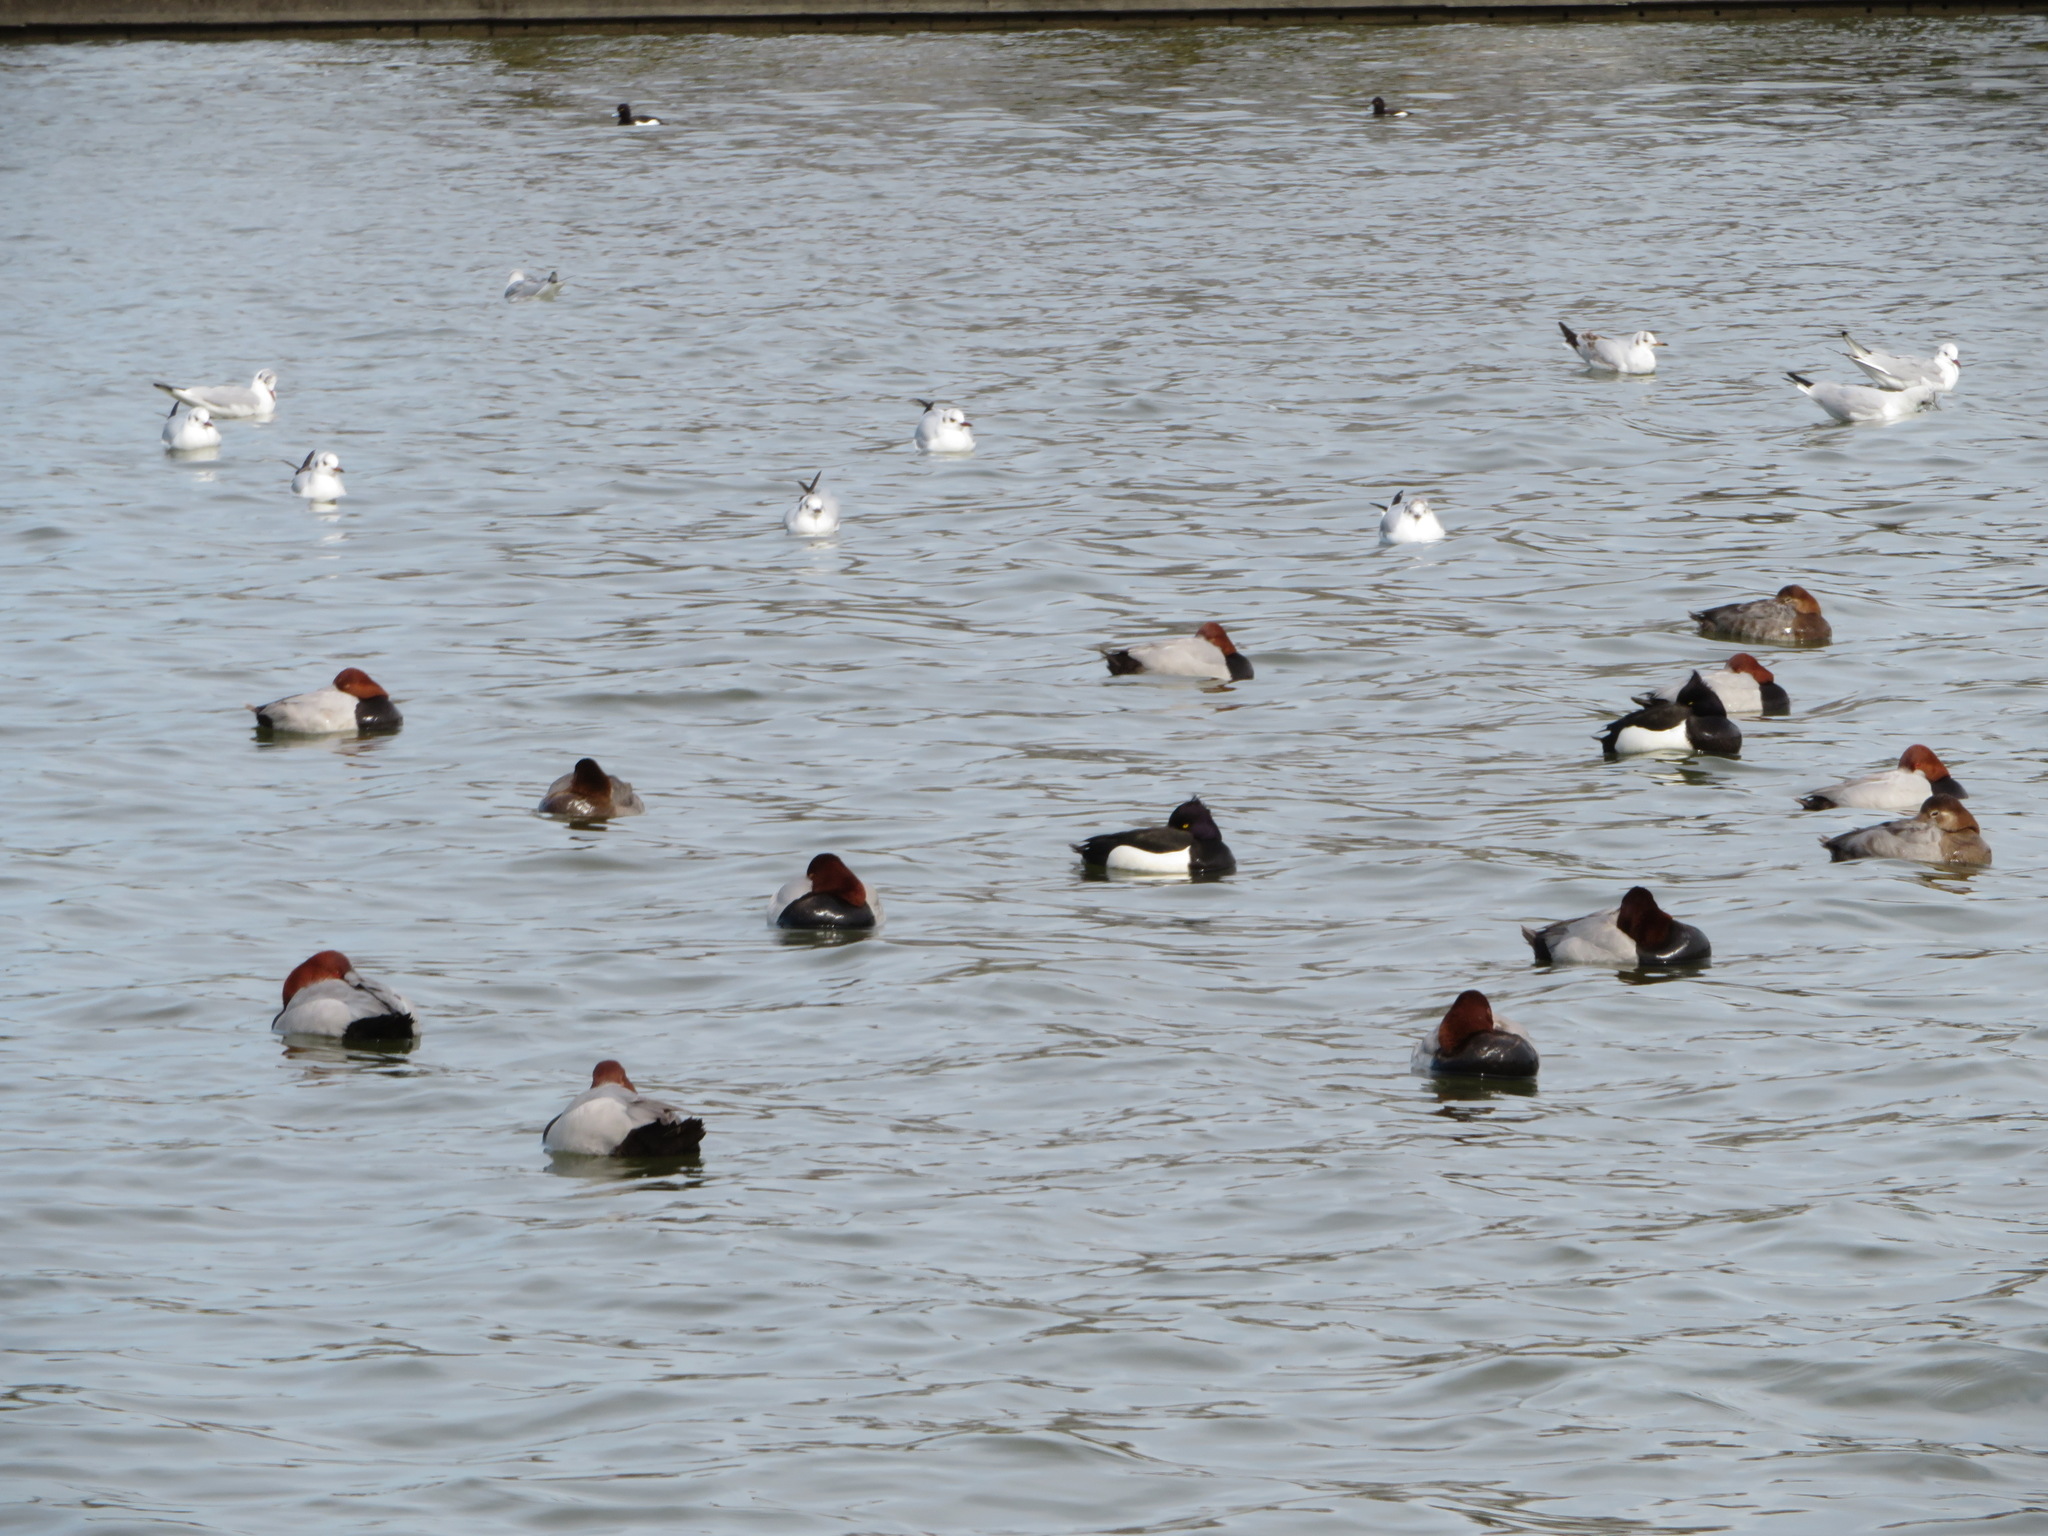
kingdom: Animalia
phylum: Chordata
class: Aves
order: Anseriformes
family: Anatidae
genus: Aythya
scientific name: Aythya fuligula
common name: Tufted duck
